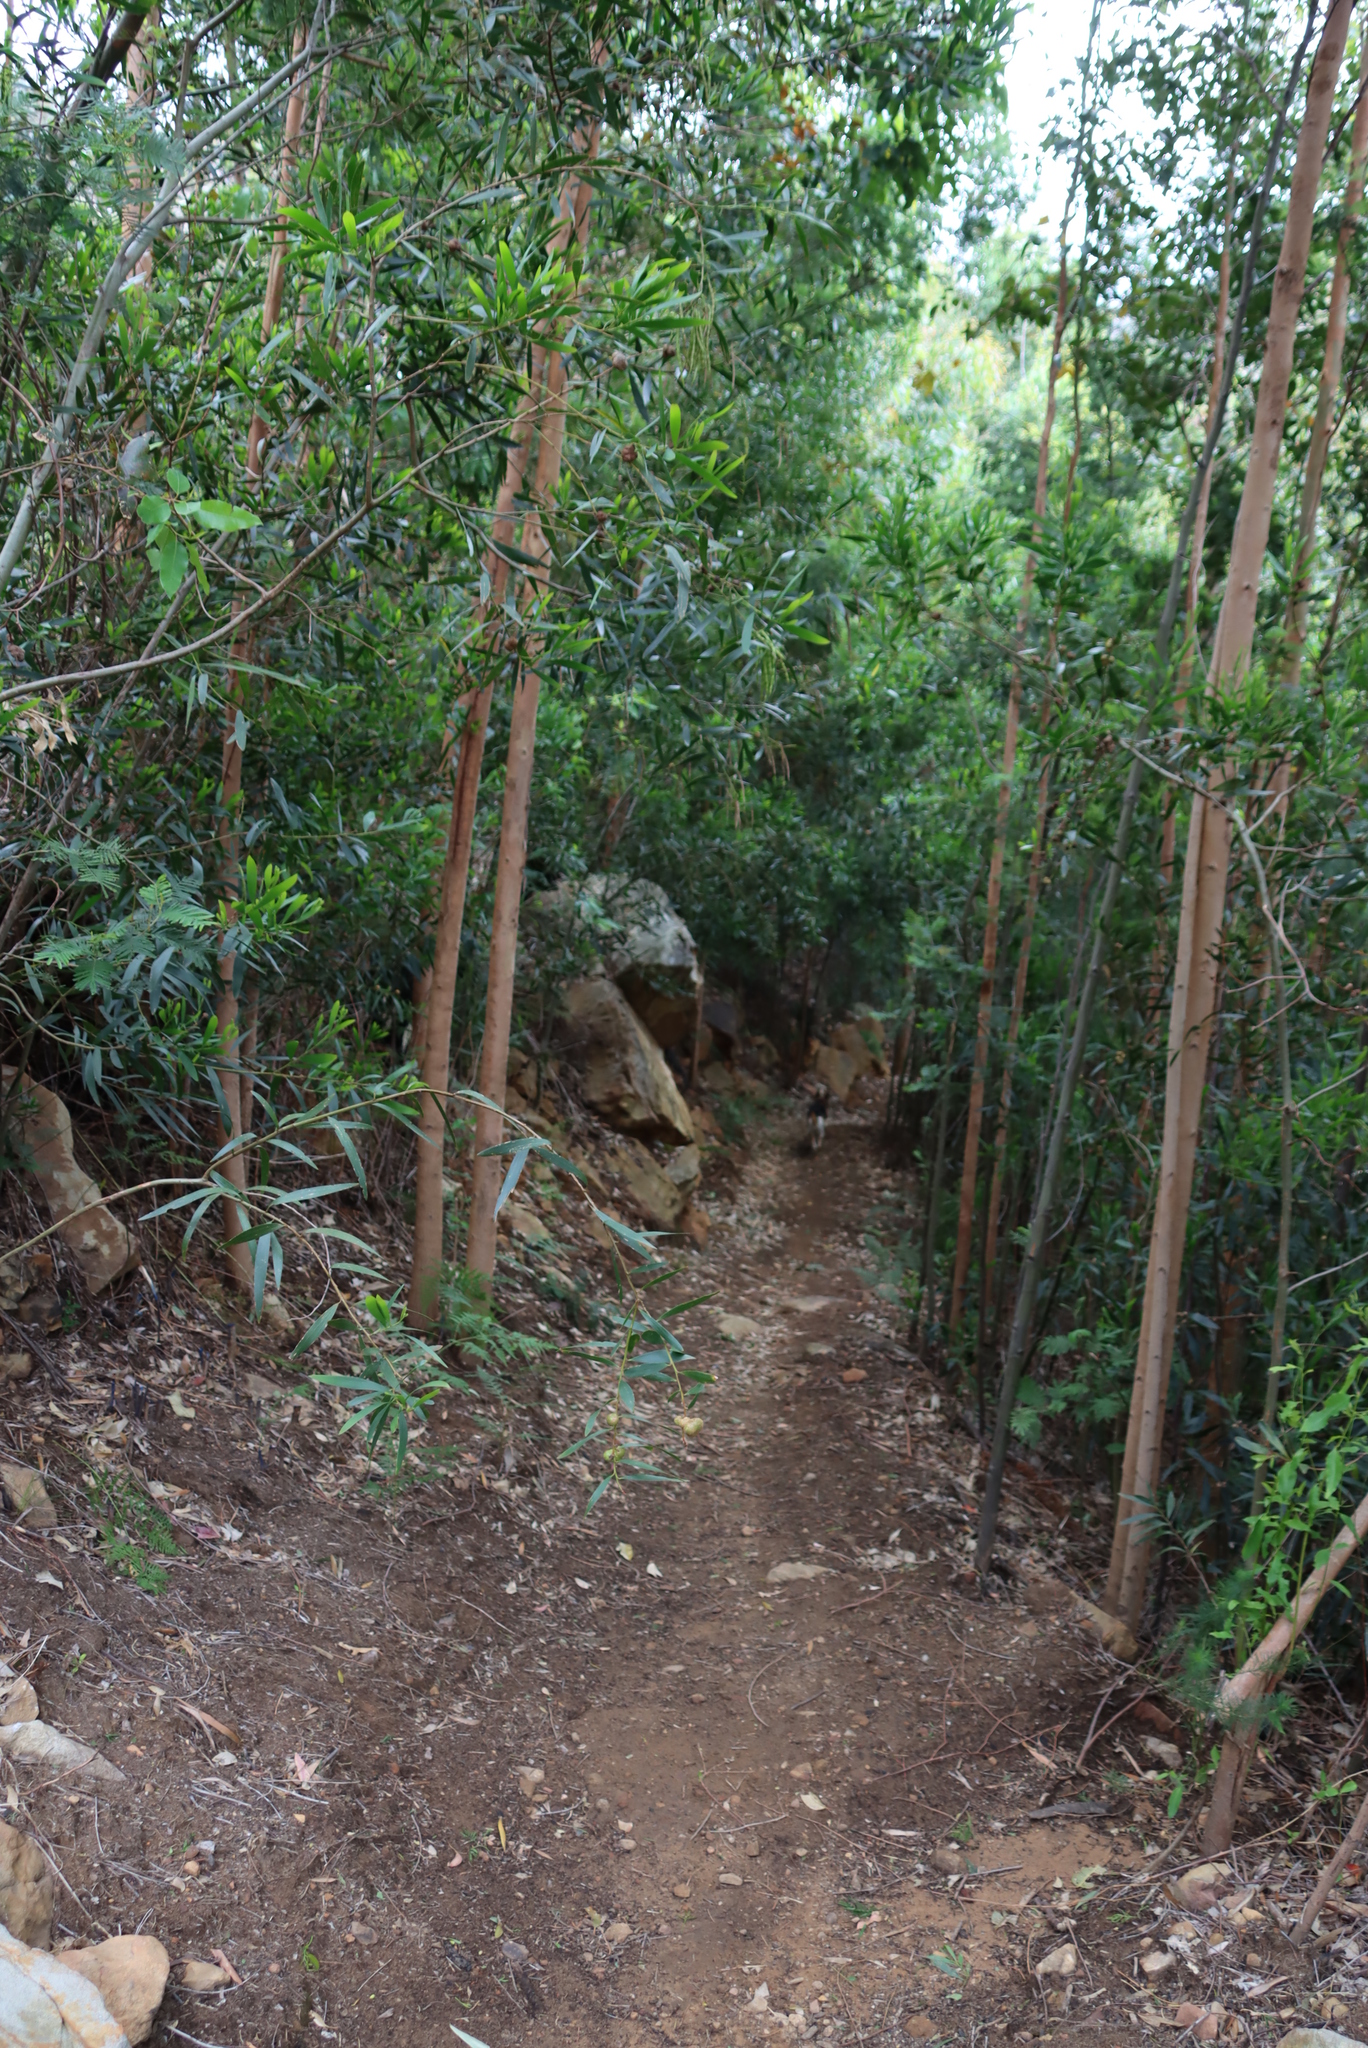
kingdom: Plantae
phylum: Tracheophyta
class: Magnoliopsida
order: Fabales
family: Fabaceae
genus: Acacia
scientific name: Acacia longifolia
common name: Sydney golden wattle
